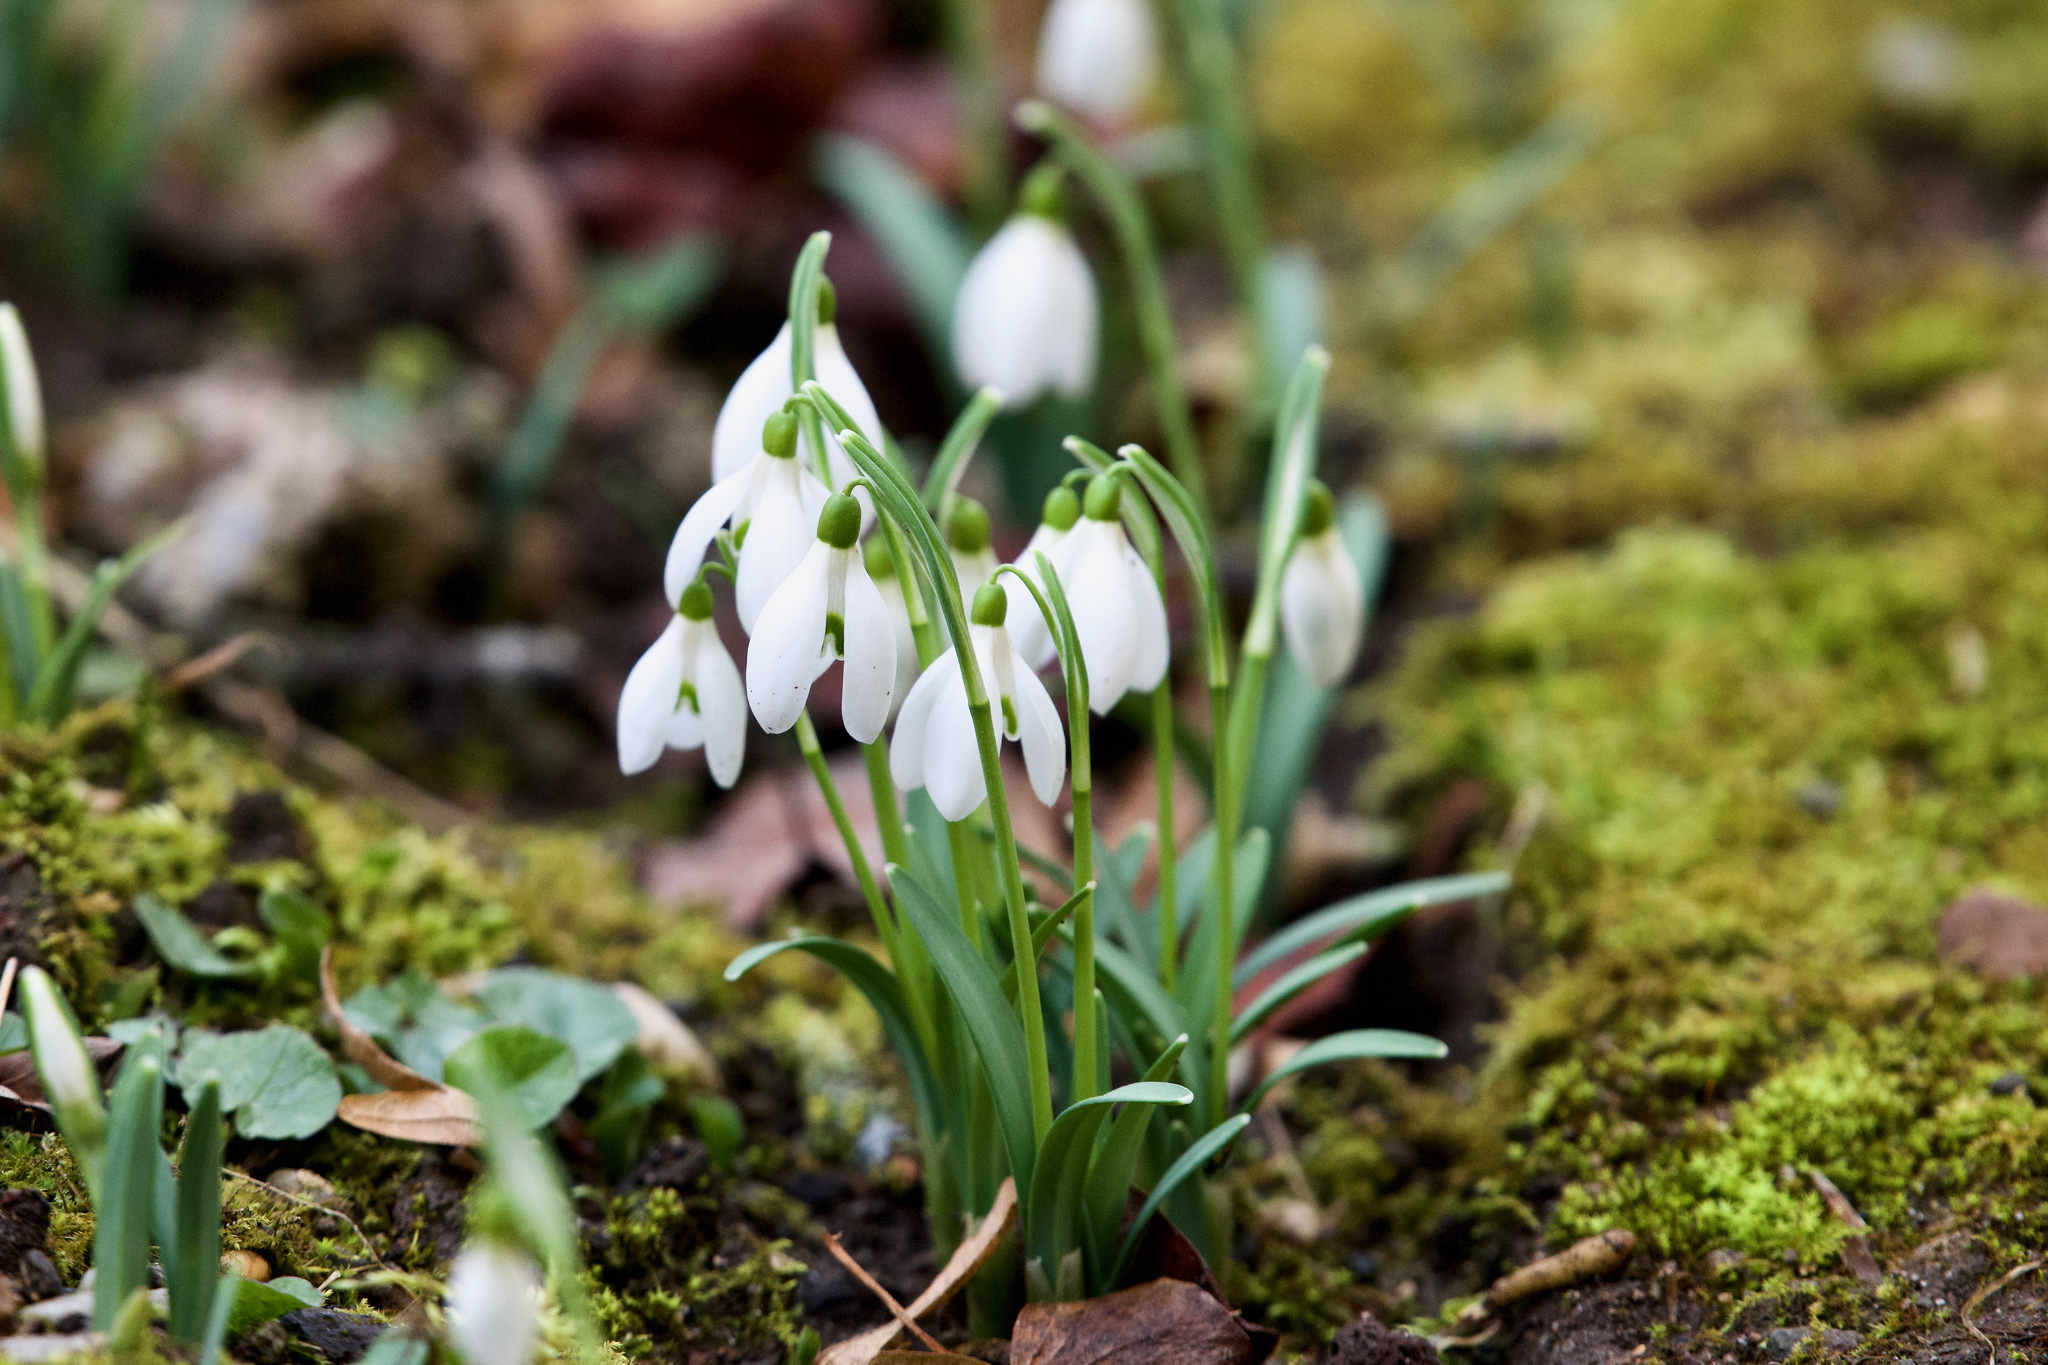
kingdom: Plantae
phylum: Tracheophyta
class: Liliopsida
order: Asparagales
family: Amaryllidaceae
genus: Galanthus
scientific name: Galanthus nivalis
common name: Snowdrop
